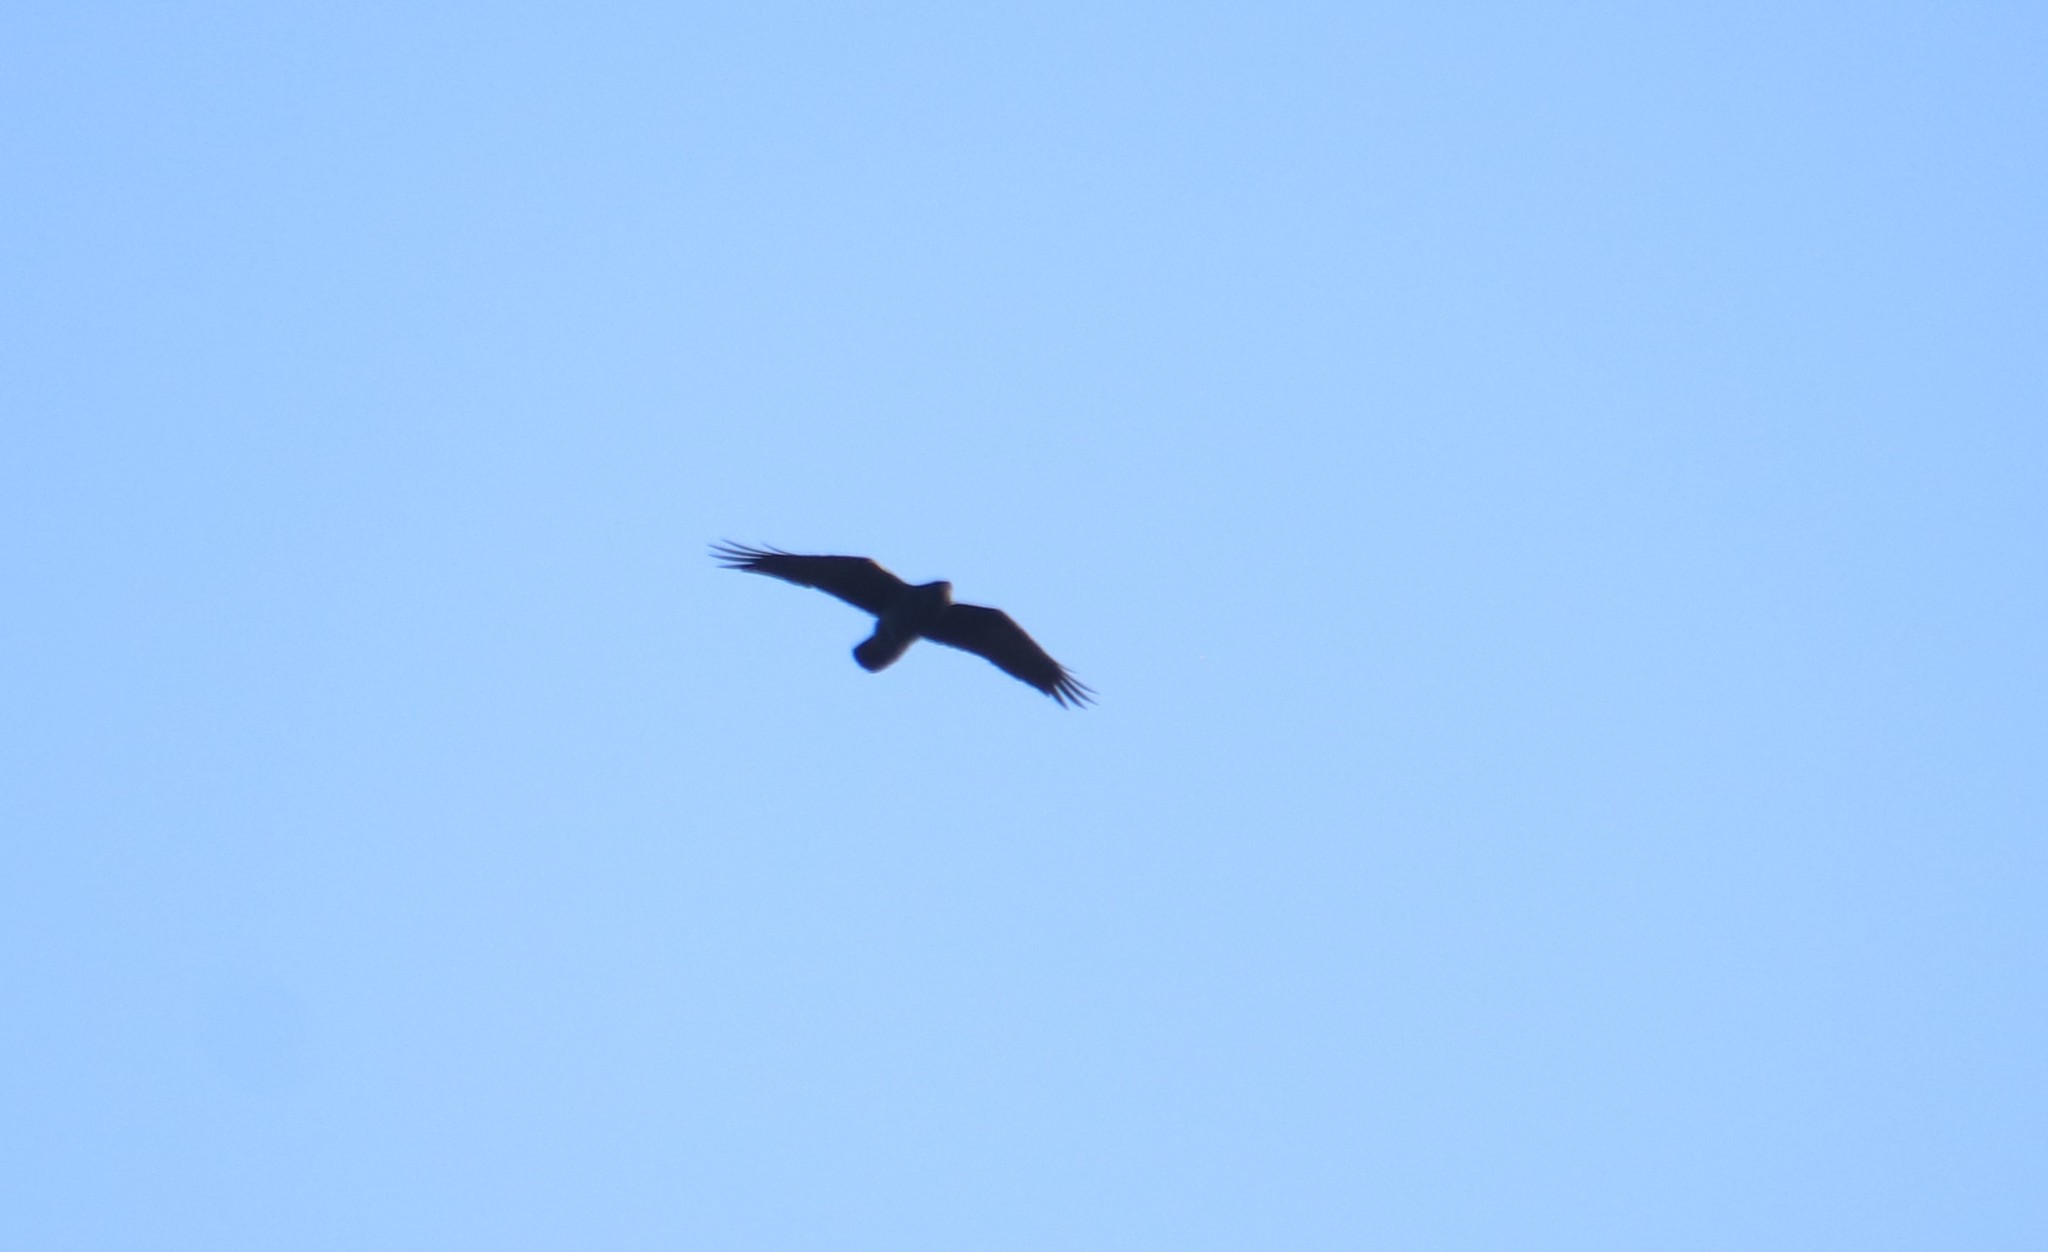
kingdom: Animalia
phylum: Chordata
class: Aves
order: Passeriformes
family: Corvidae
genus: Corvus
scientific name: Corvus corax
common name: Common raven
